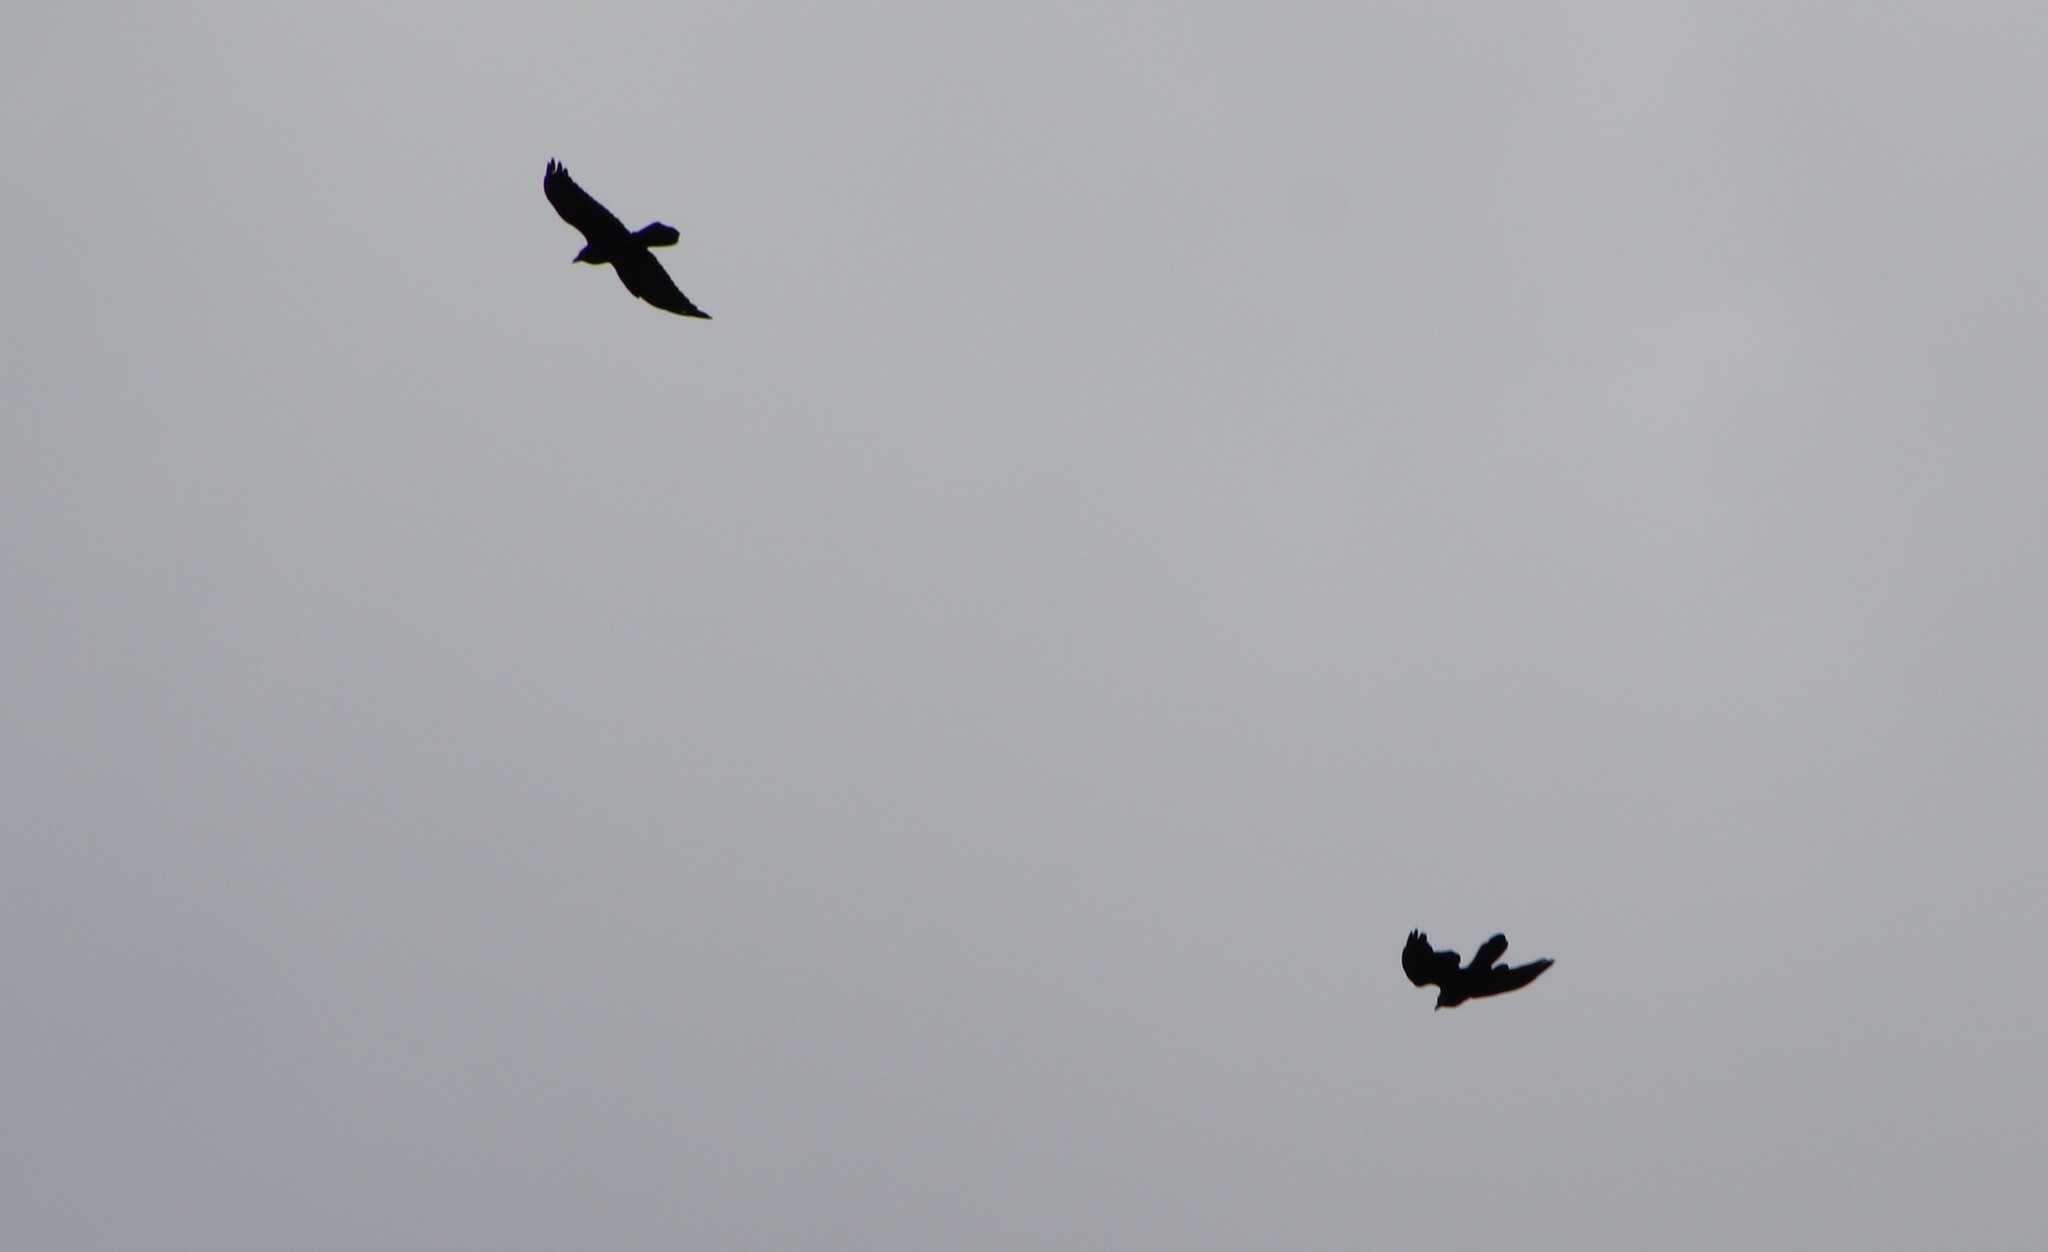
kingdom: Animalia
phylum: Chordata
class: Aves
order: Passeriformes
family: Corvidae
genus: Corvus
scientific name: Corvus corax
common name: Common raven
